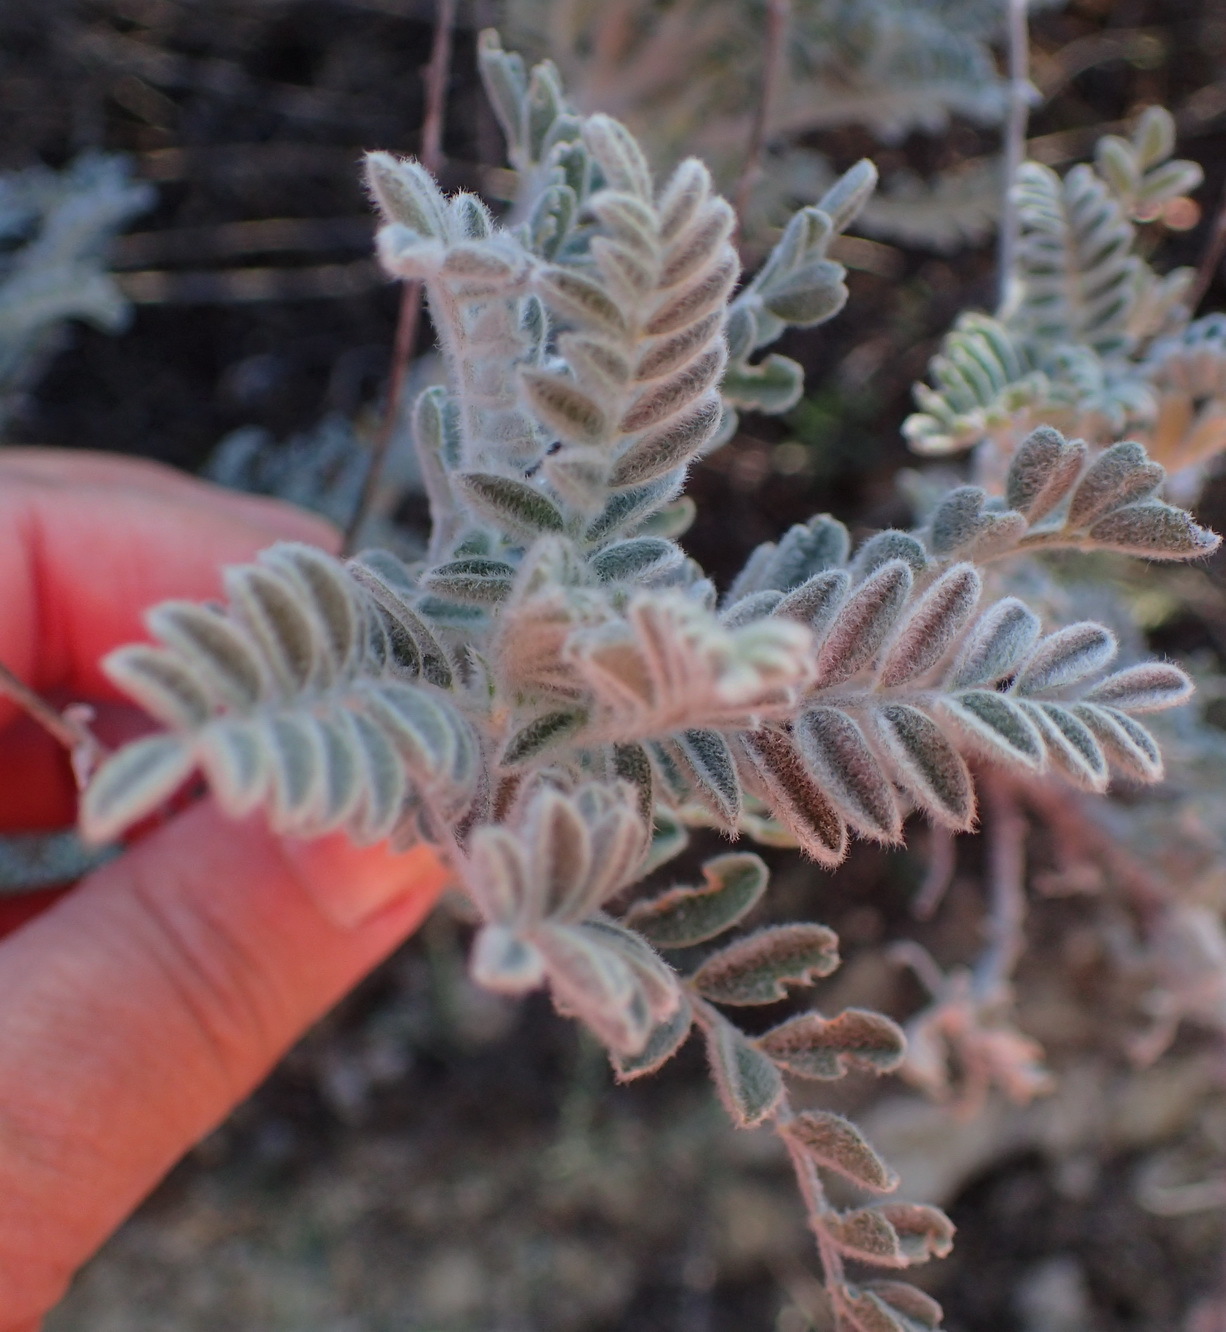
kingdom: Plantae
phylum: Tracheophyta
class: Magnoliopsida
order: Fabales
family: Fabaceae
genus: Lessertia
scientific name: Lessertia lanata
